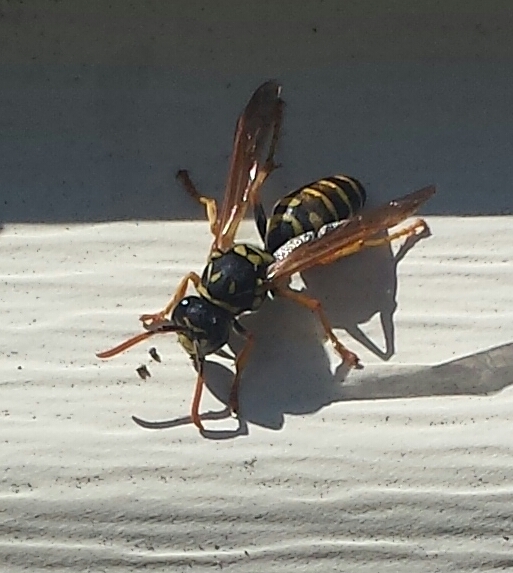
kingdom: Animalia
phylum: Arthropoda
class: Insecta
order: Hymenoptera
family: Eumenidae
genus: Polistes
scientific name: Polistes dominula
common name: Paper wasp
